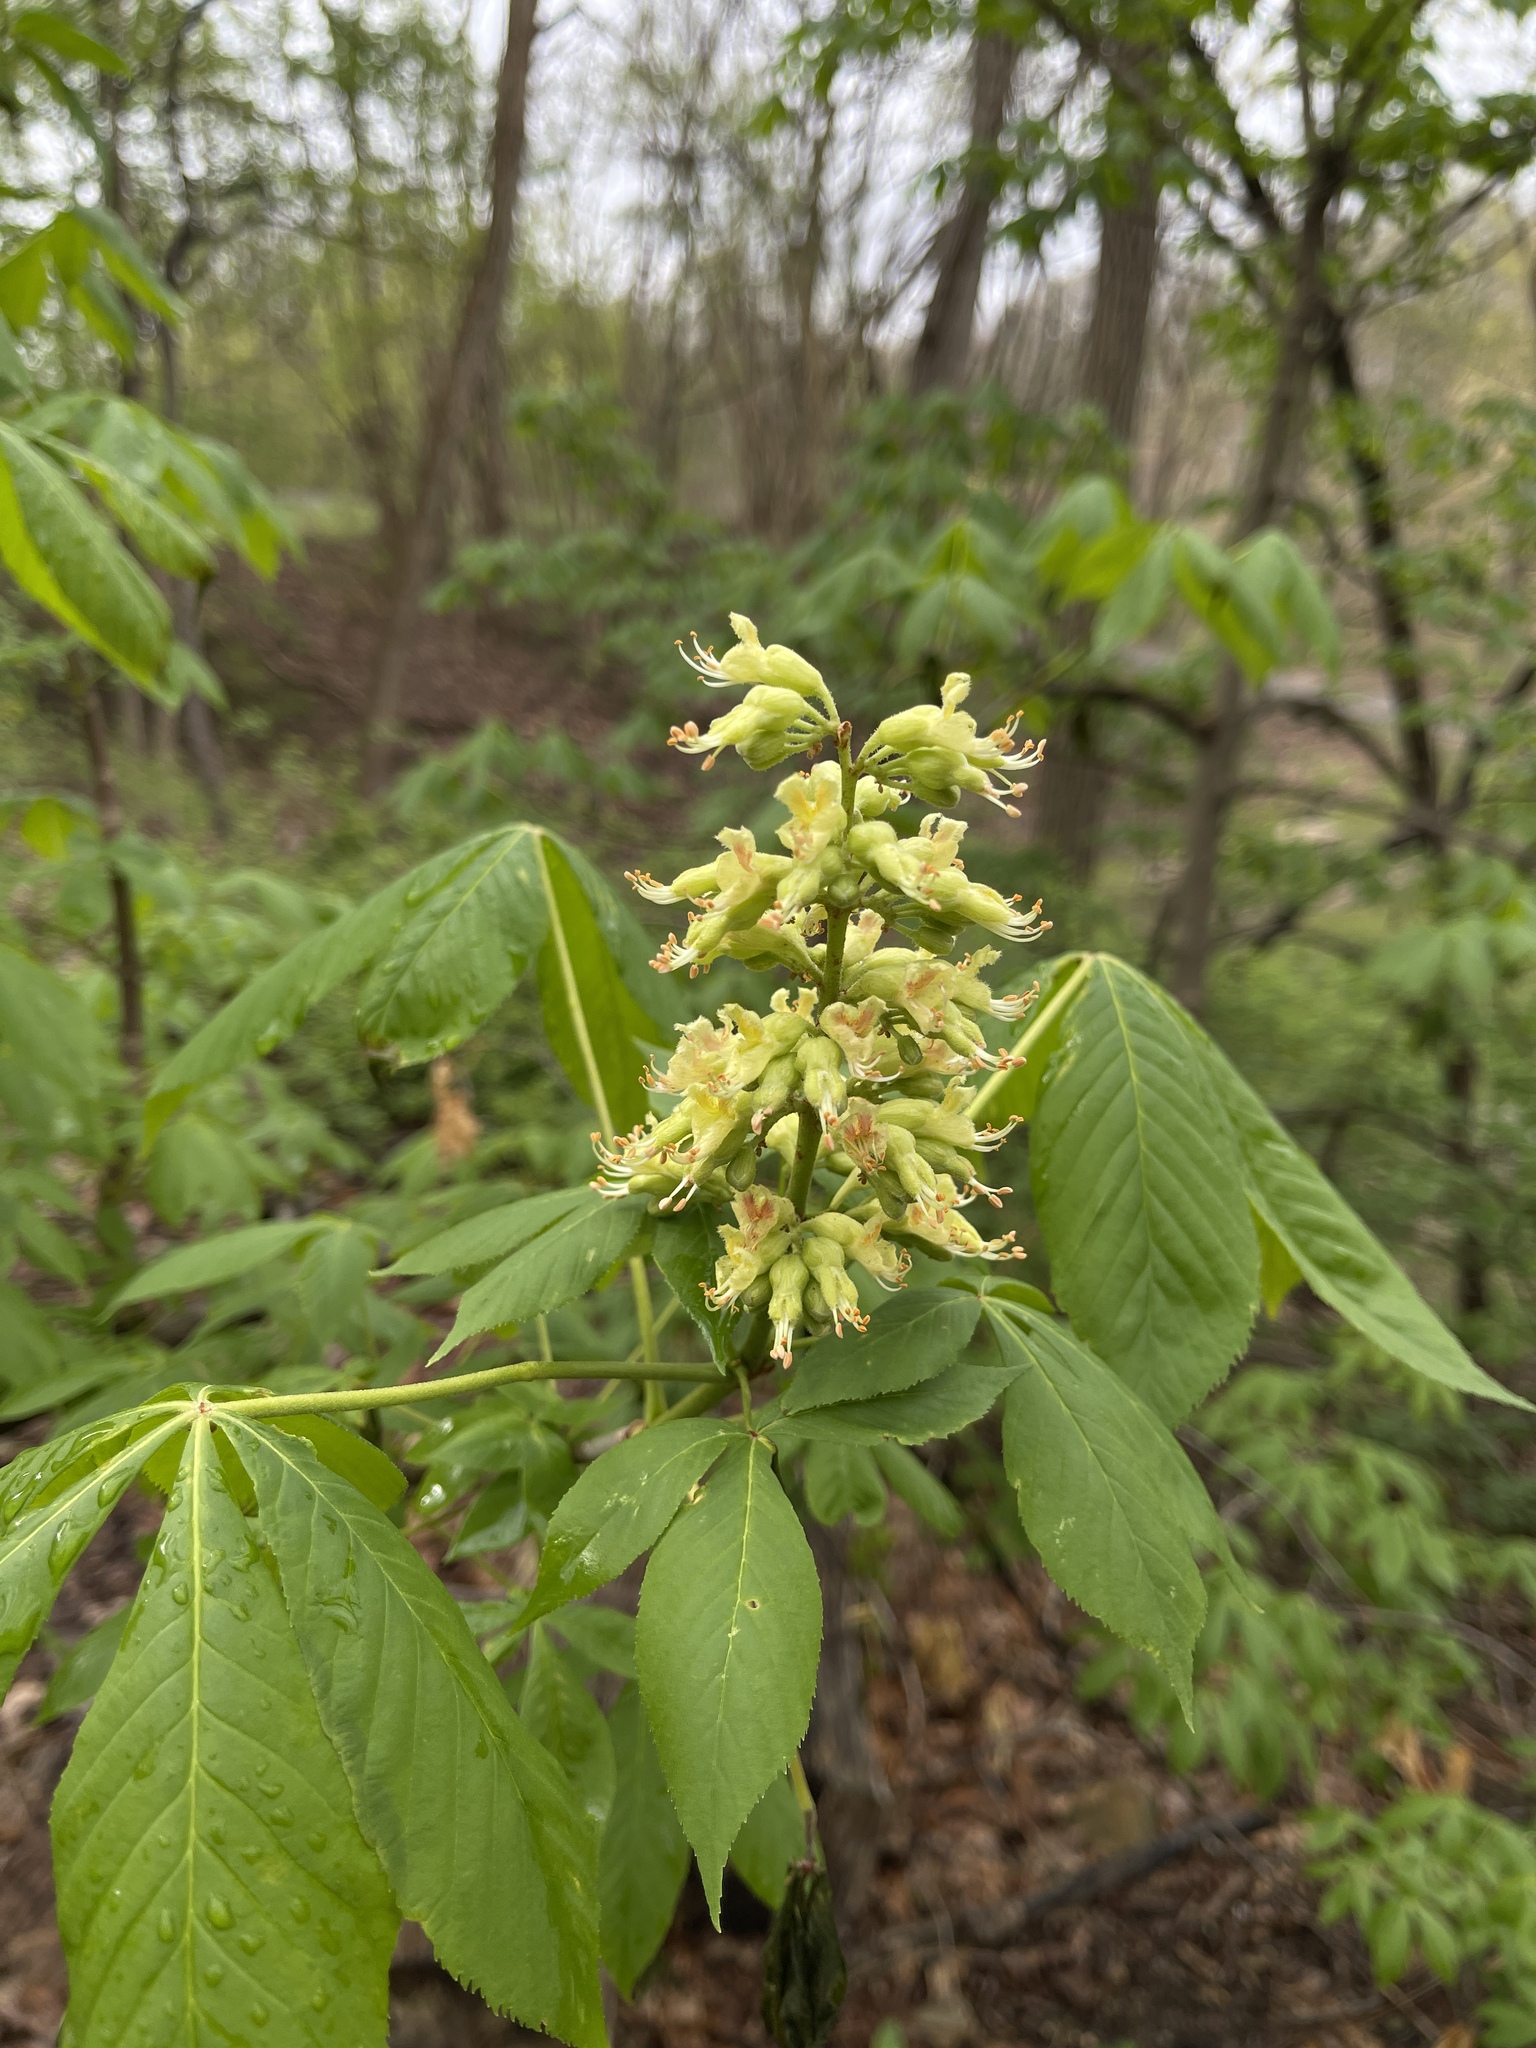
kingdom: Plantae
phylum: Tracheophyta
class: Magnoliopsida
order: Sapindales
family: Sapindaceae
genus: Aesculus
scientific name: Aesculus glabra
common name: Ohio buckeye
